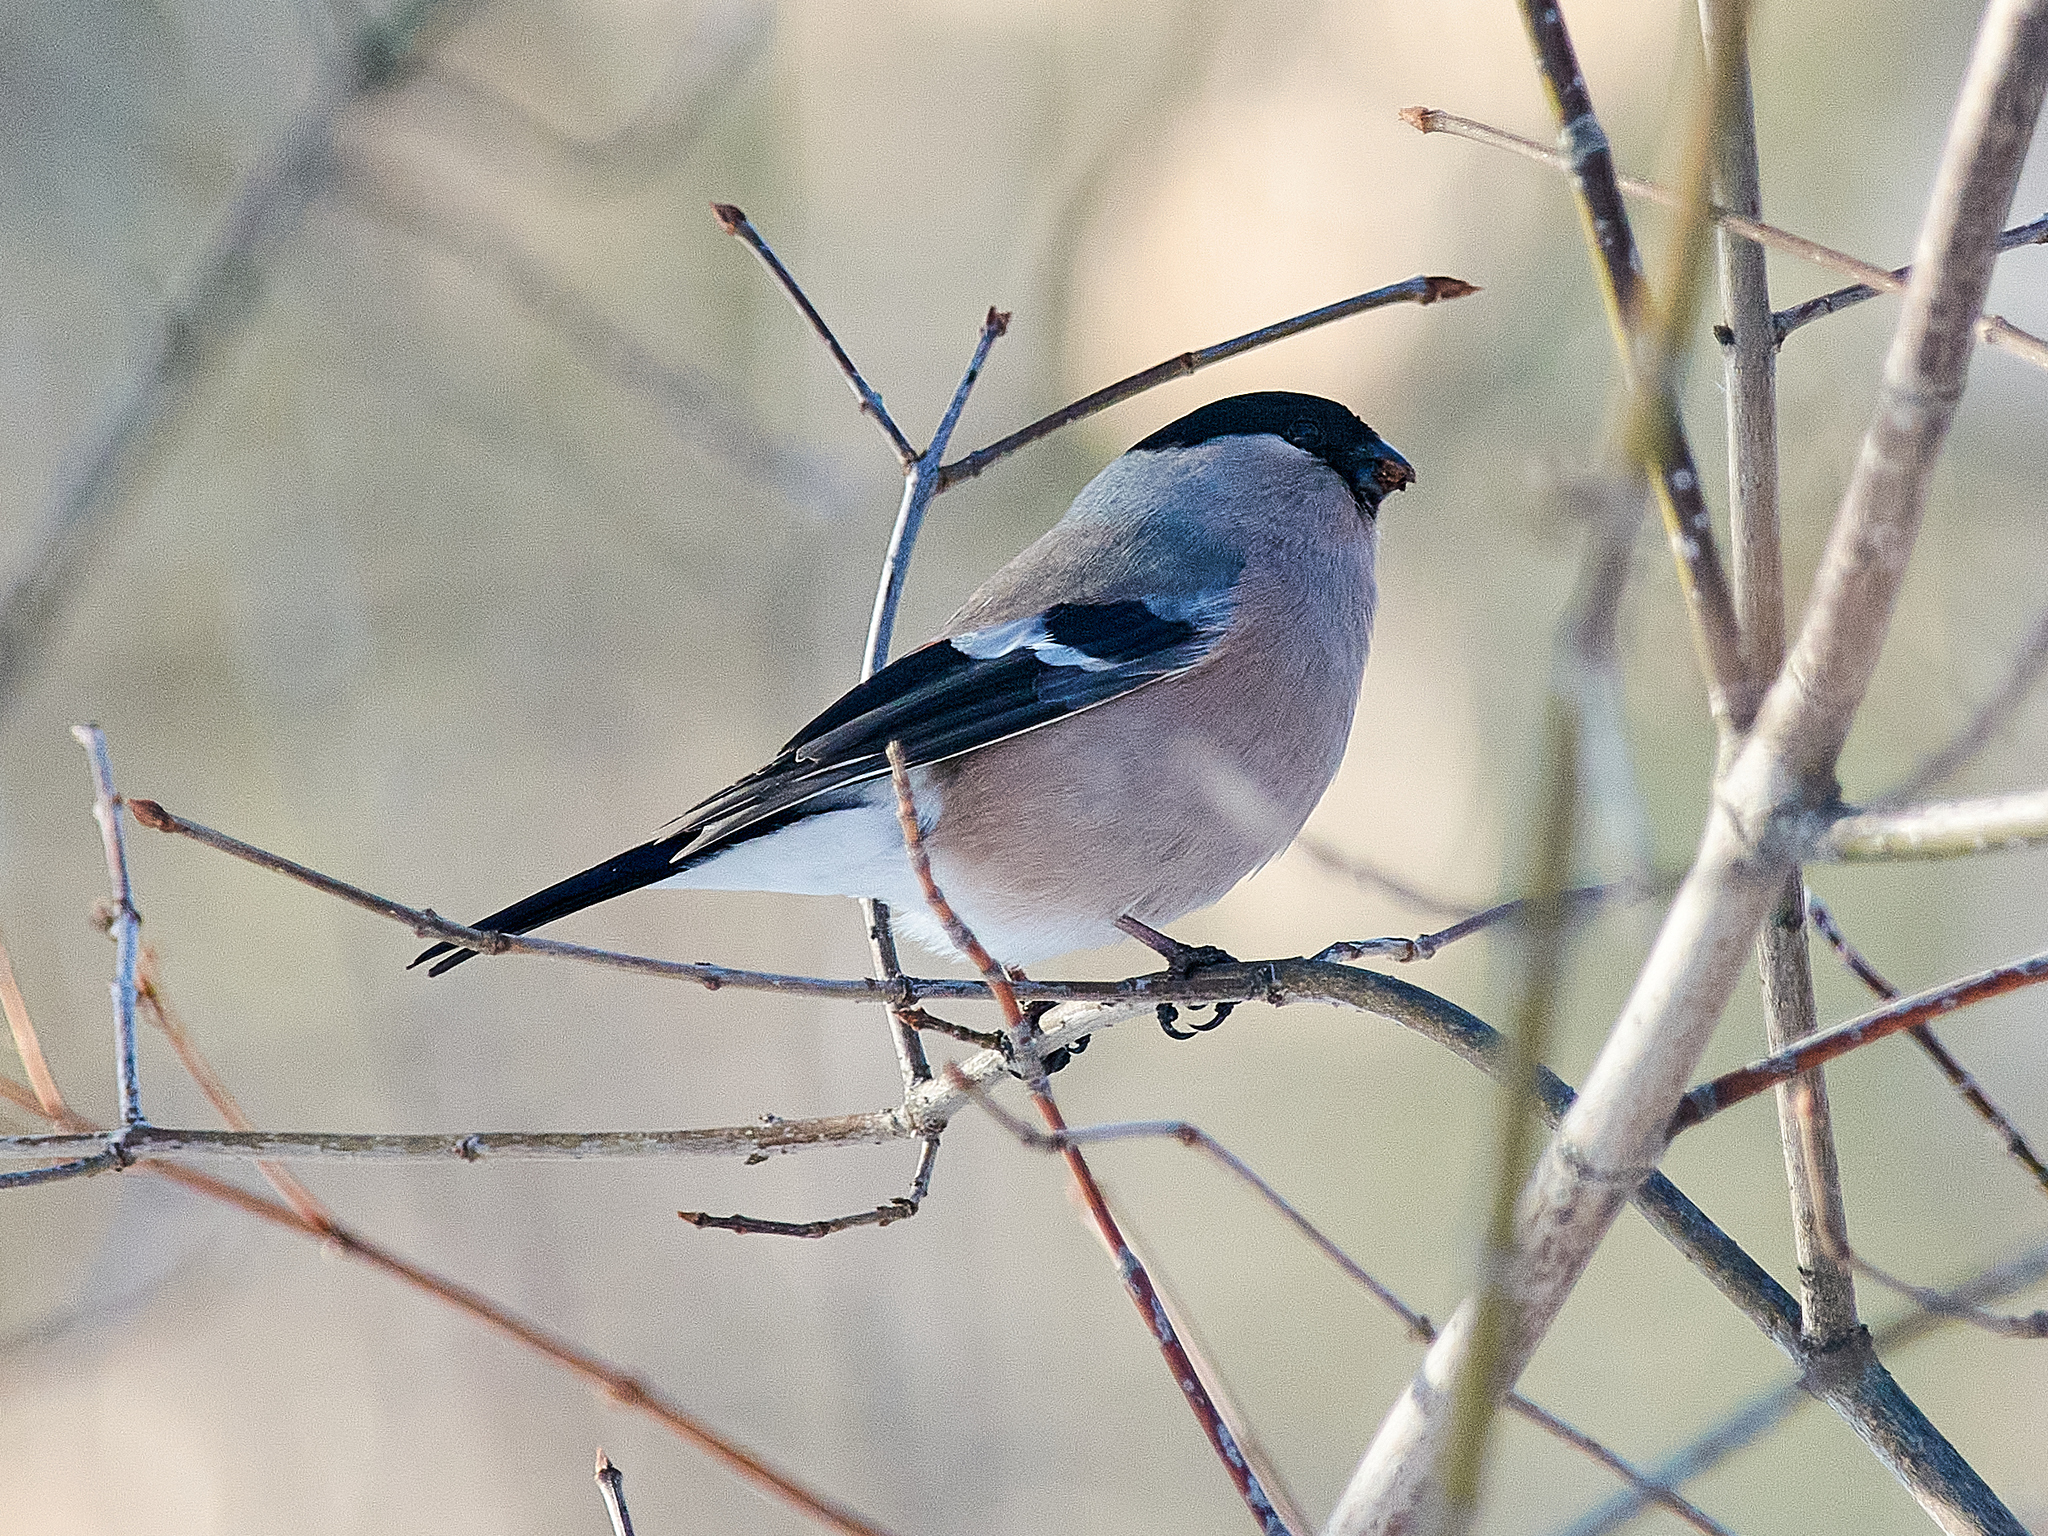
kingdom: Animalia
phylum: Chordata
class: Aves
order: Passeriformes
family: Fringillidae
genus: Pyrrhula
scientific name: Pyrrhula pyrrhula
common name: Eurasian bullfinch
